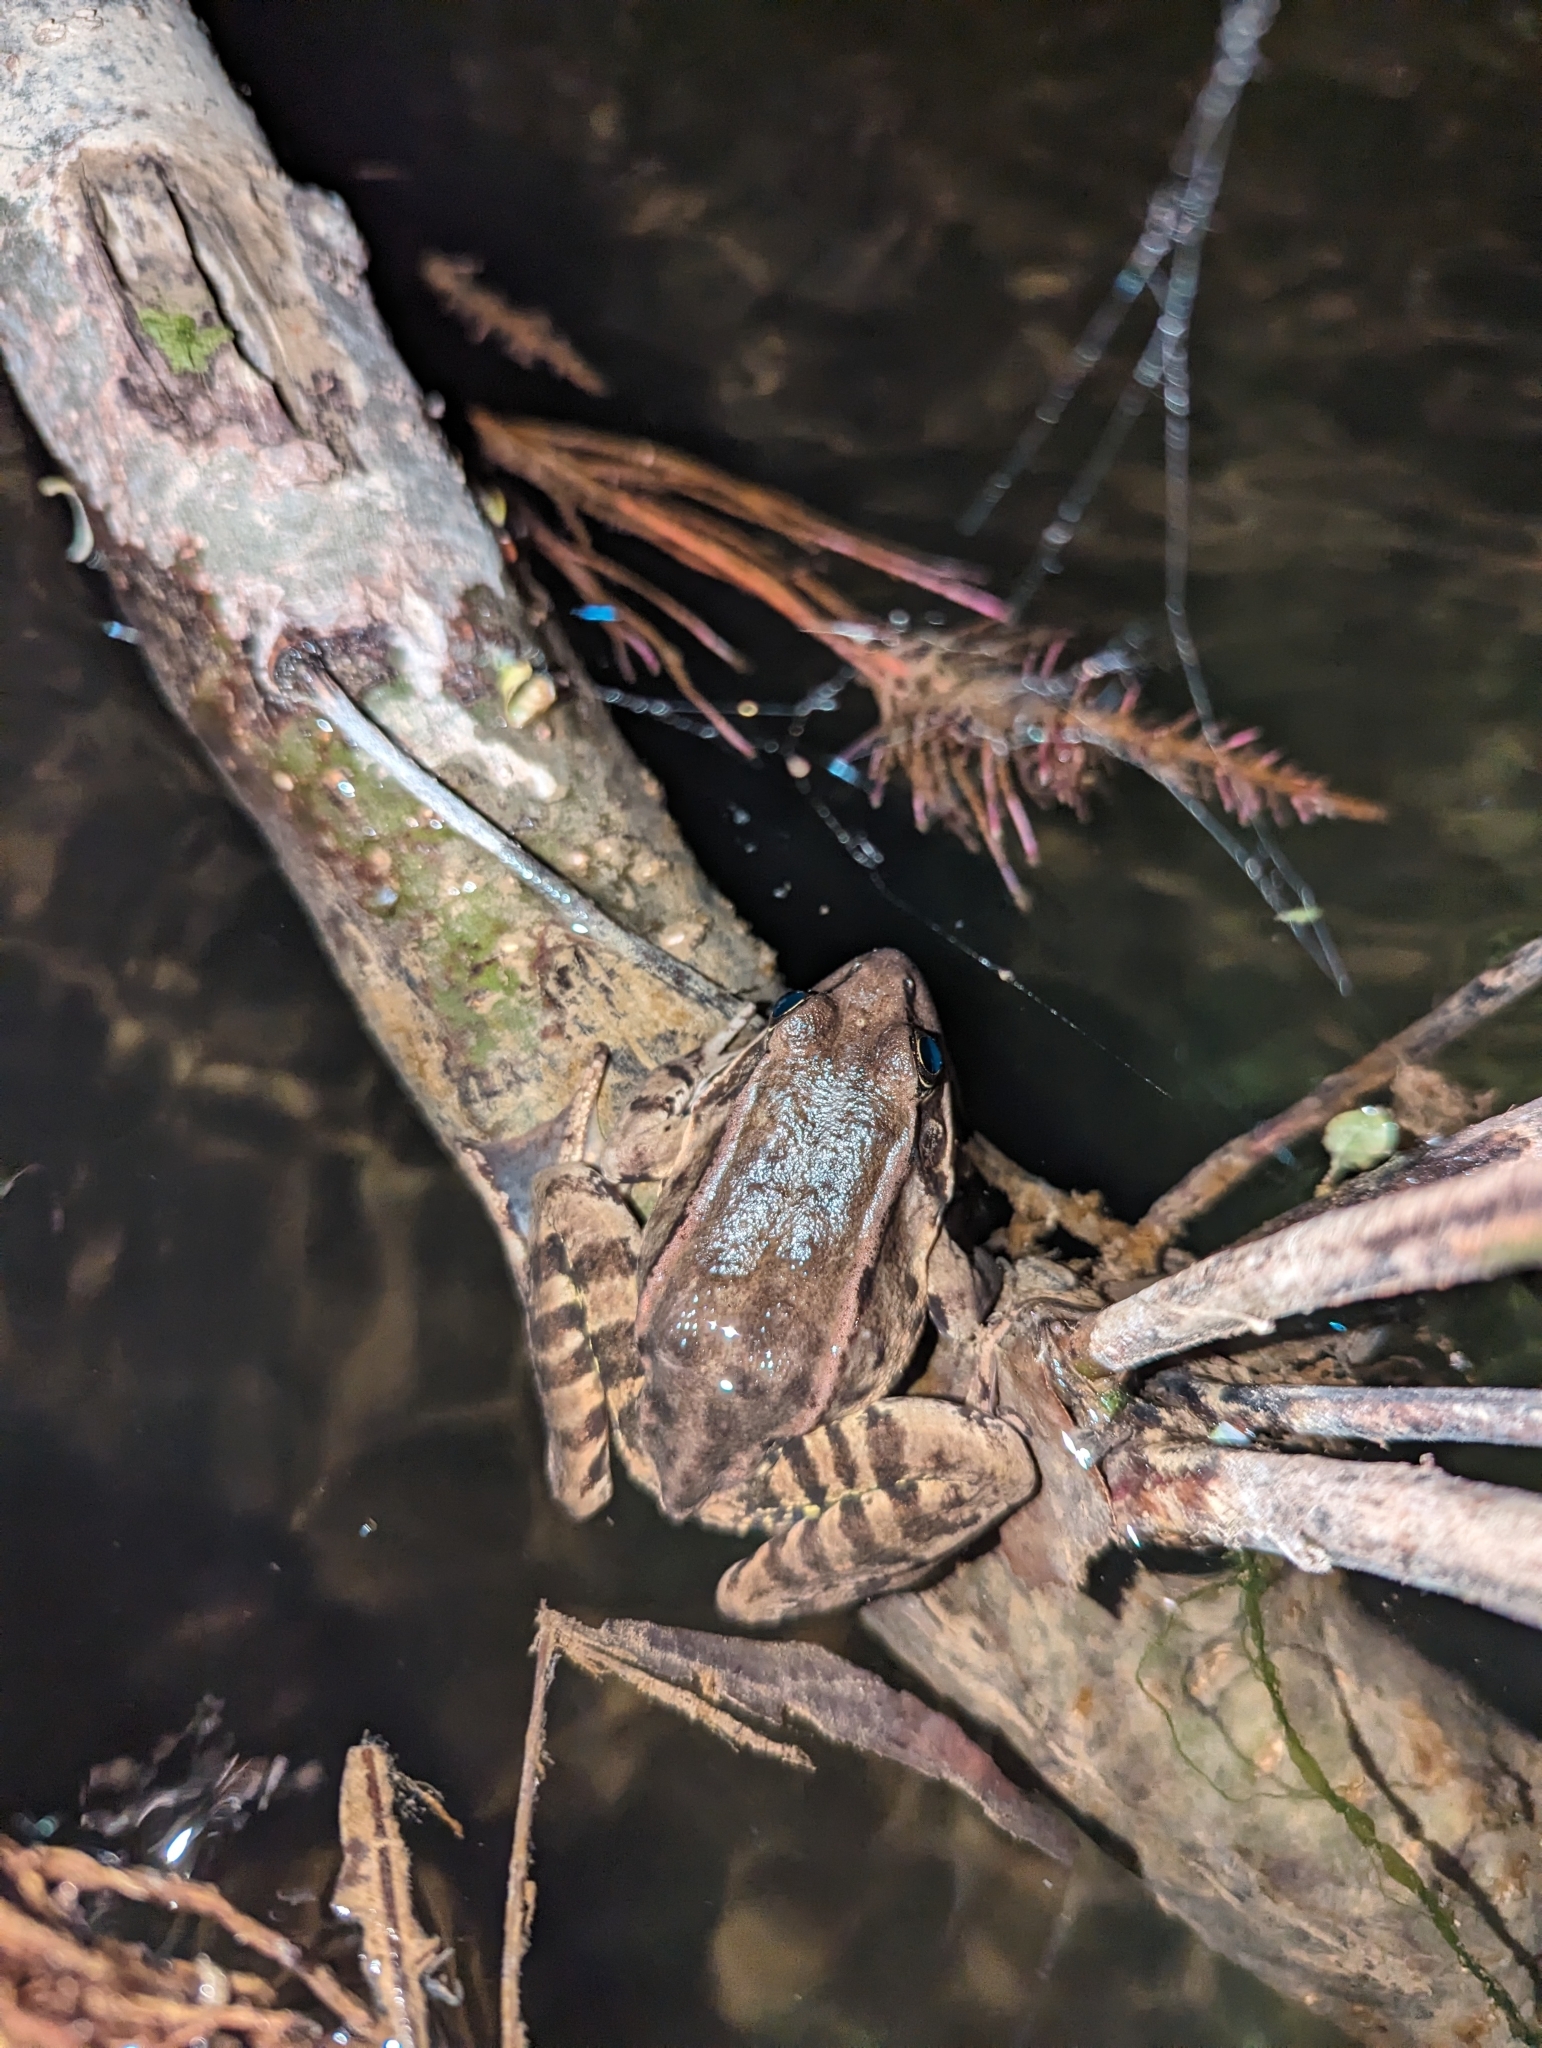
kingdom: Animalia
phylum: Chordata
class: Amphibia
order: Anura
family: Ranidae
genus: Rana
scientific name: Rana draytonii
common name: California red-legged frog
